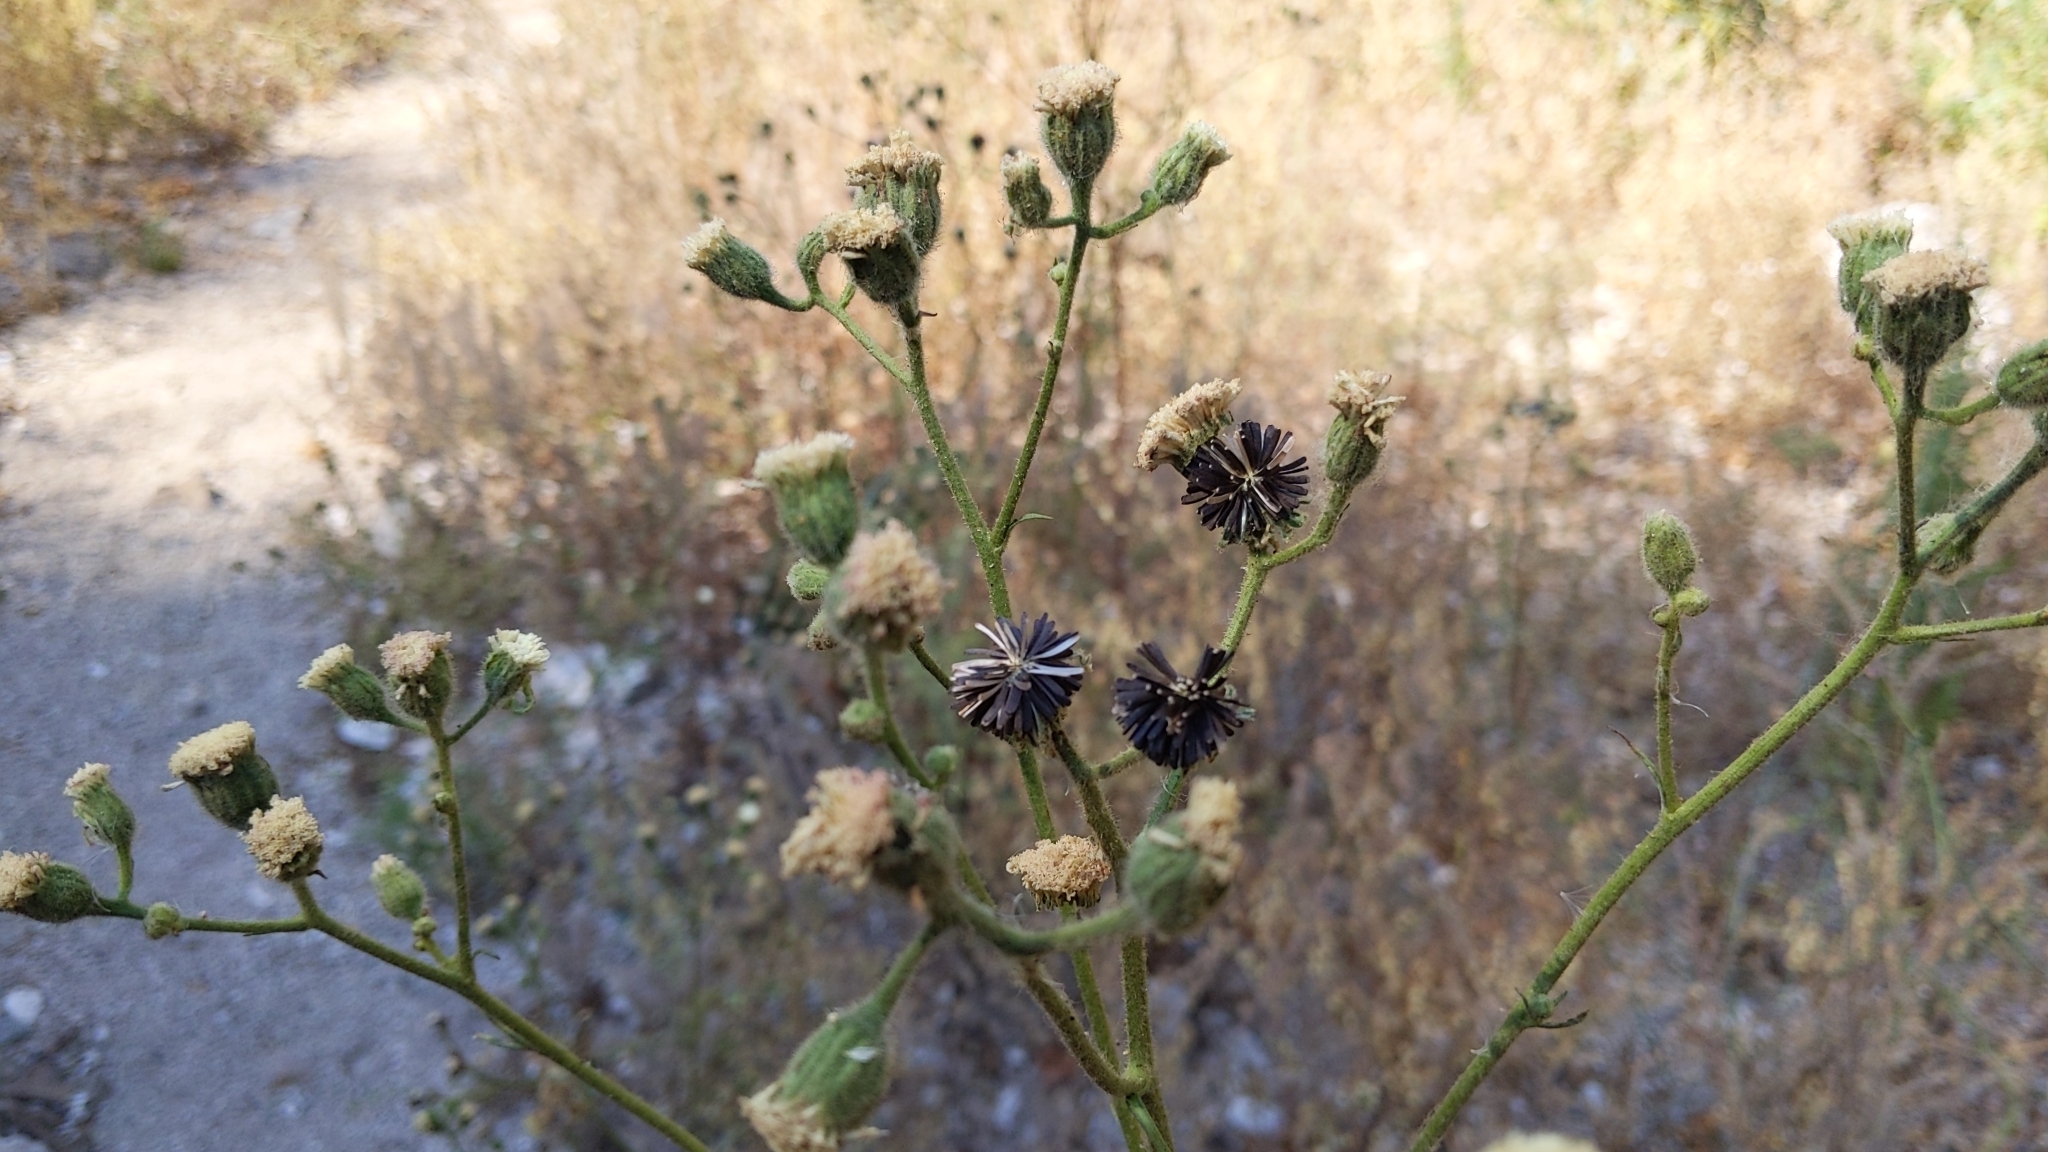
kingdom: Plantae
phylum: Tracheophyta
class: Magnoliopsida
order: Asterales
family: Asteraceae
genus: Chaenactis
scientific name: Chaenactis artemisiifolia
